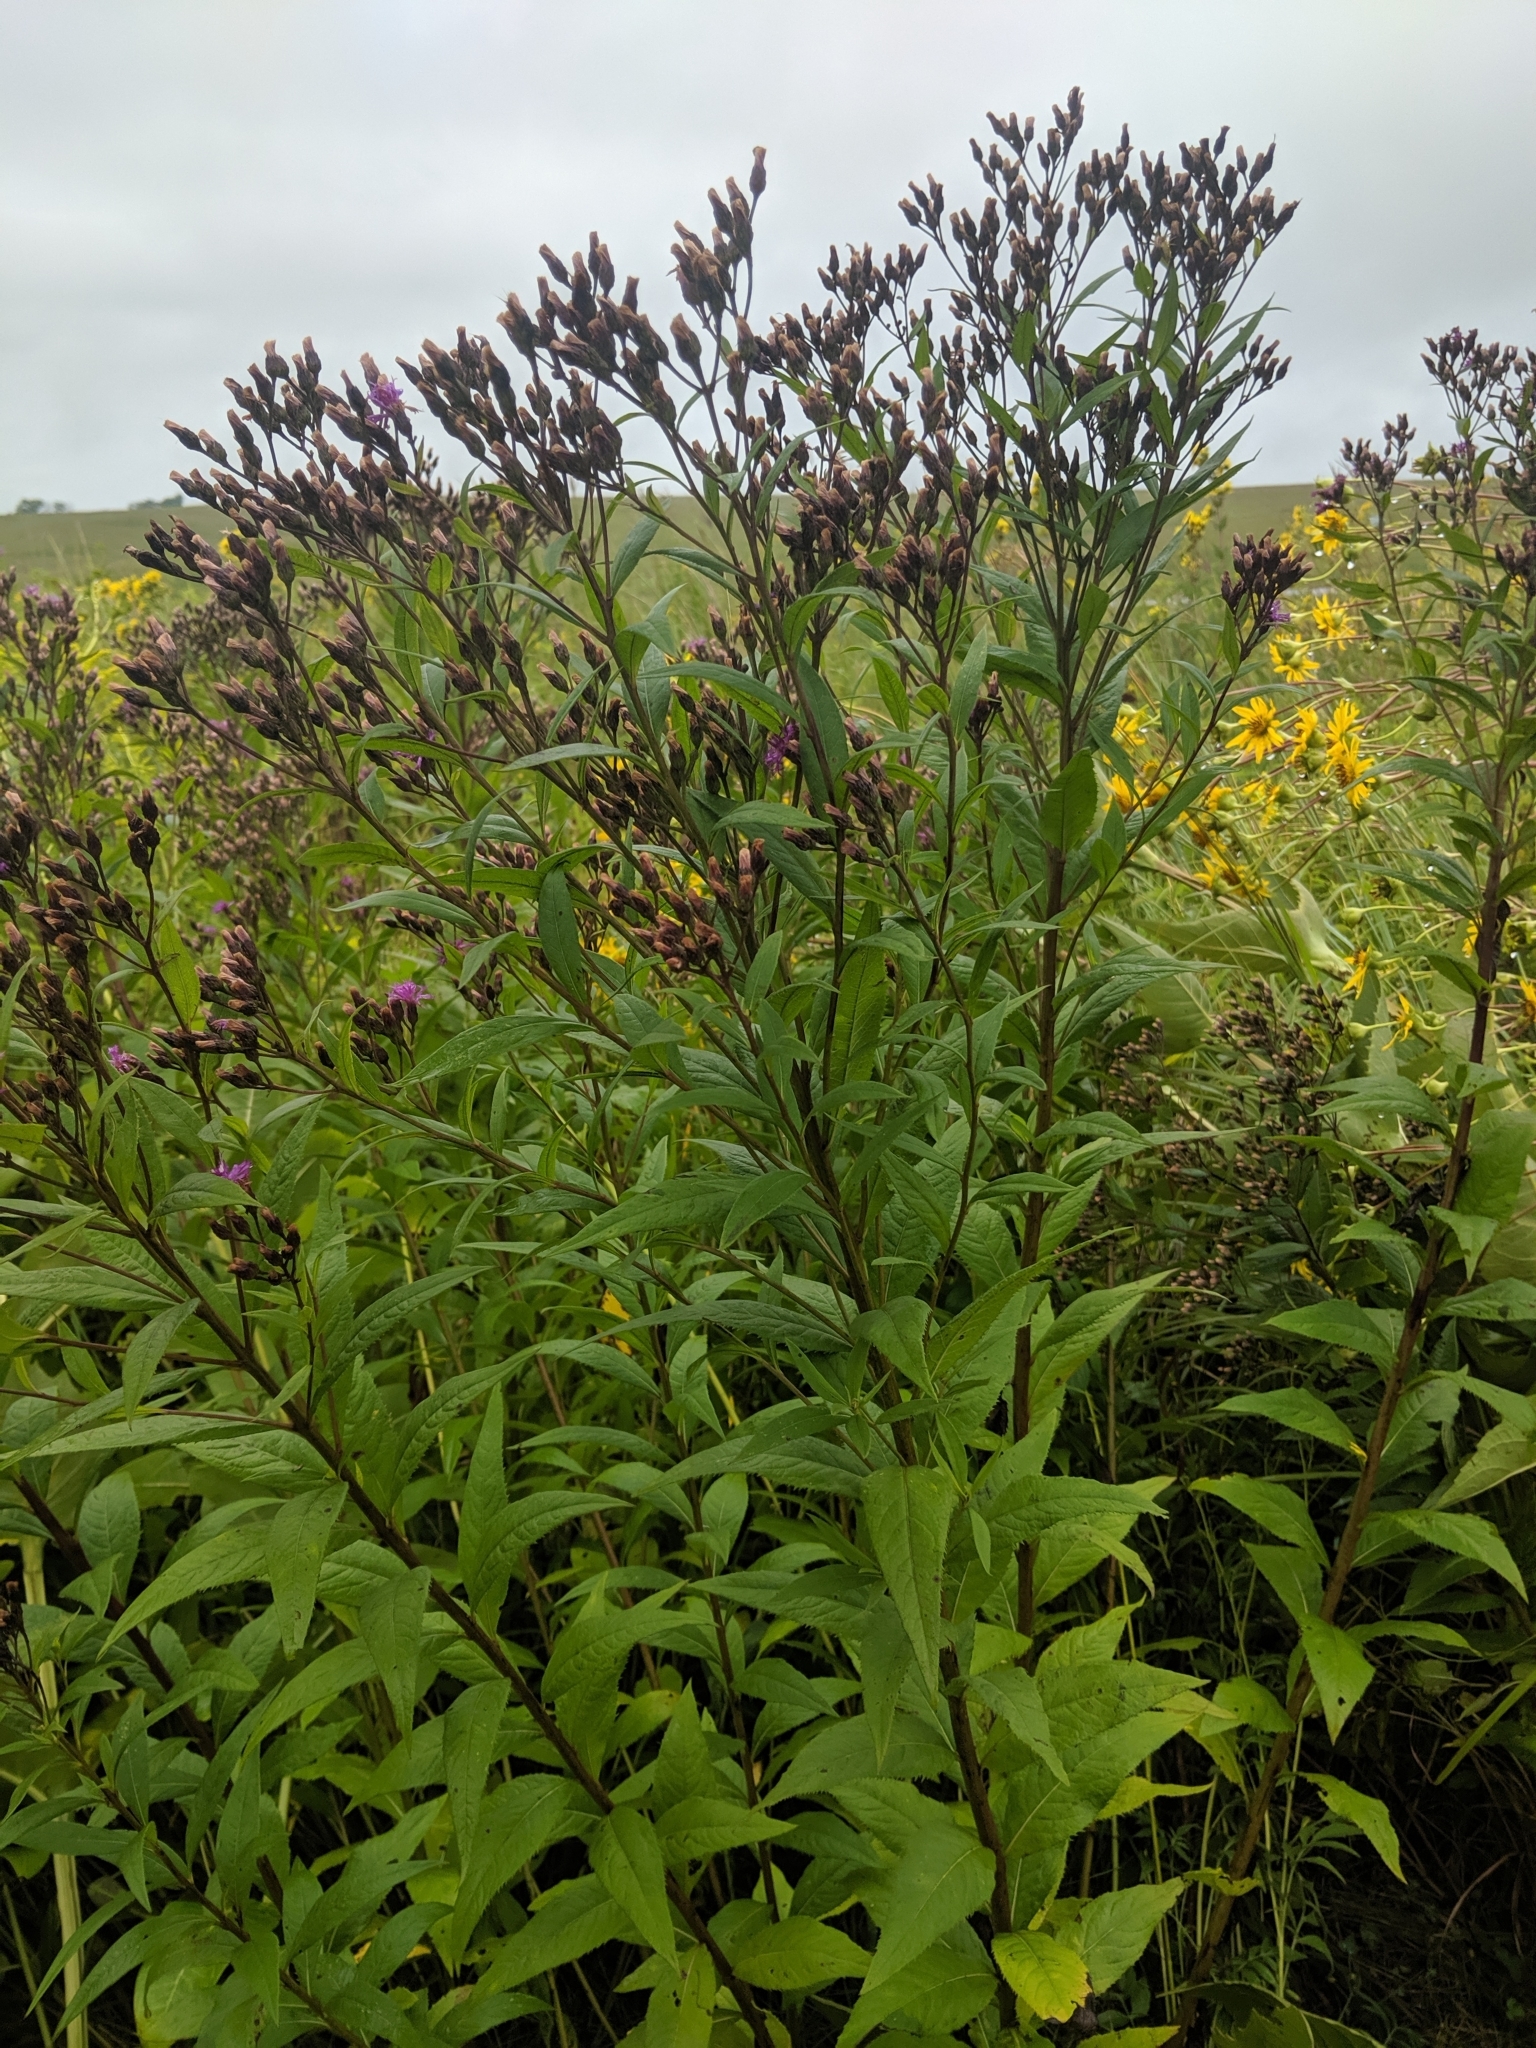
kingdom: Plantae
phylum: Tracheophyta
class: Magnoliopsida
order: Asterales
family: Asteraceae
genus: Vernonia
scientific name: Vernonia fasciculata
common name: Fascicled ironweed
